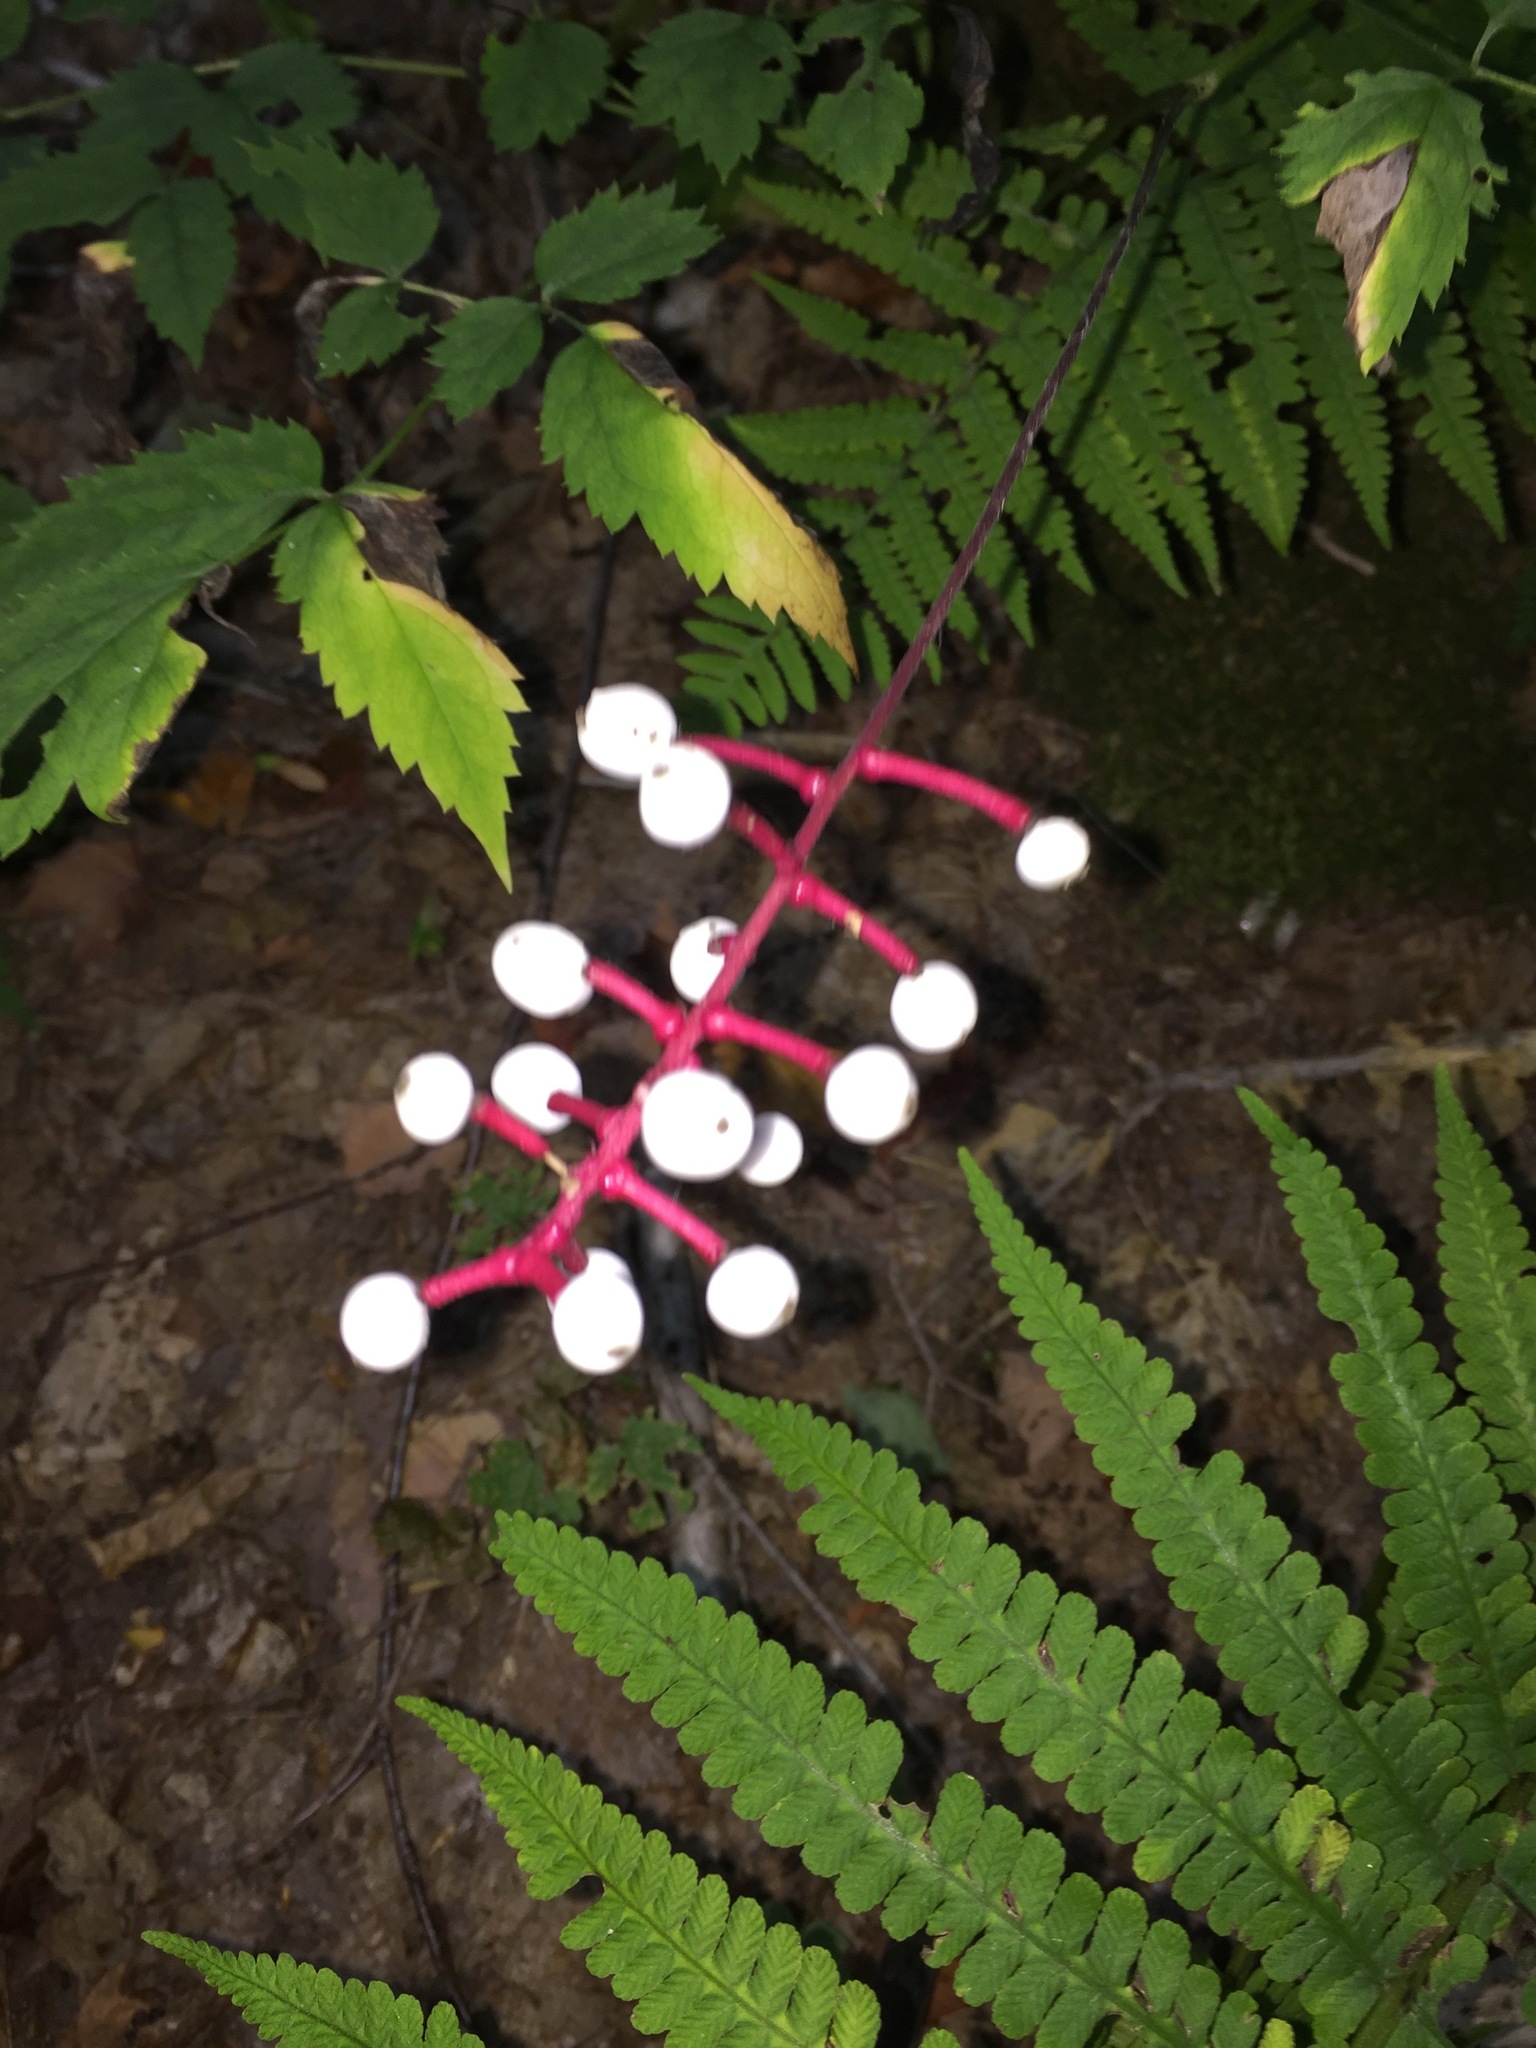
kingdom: Plantae
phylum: Tracheophyta
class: Magnoliopsida
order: Ranunculales
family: Ranunculaceae
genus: Actaea
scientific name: Actaea pachypoda
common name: Doll's-eyes
